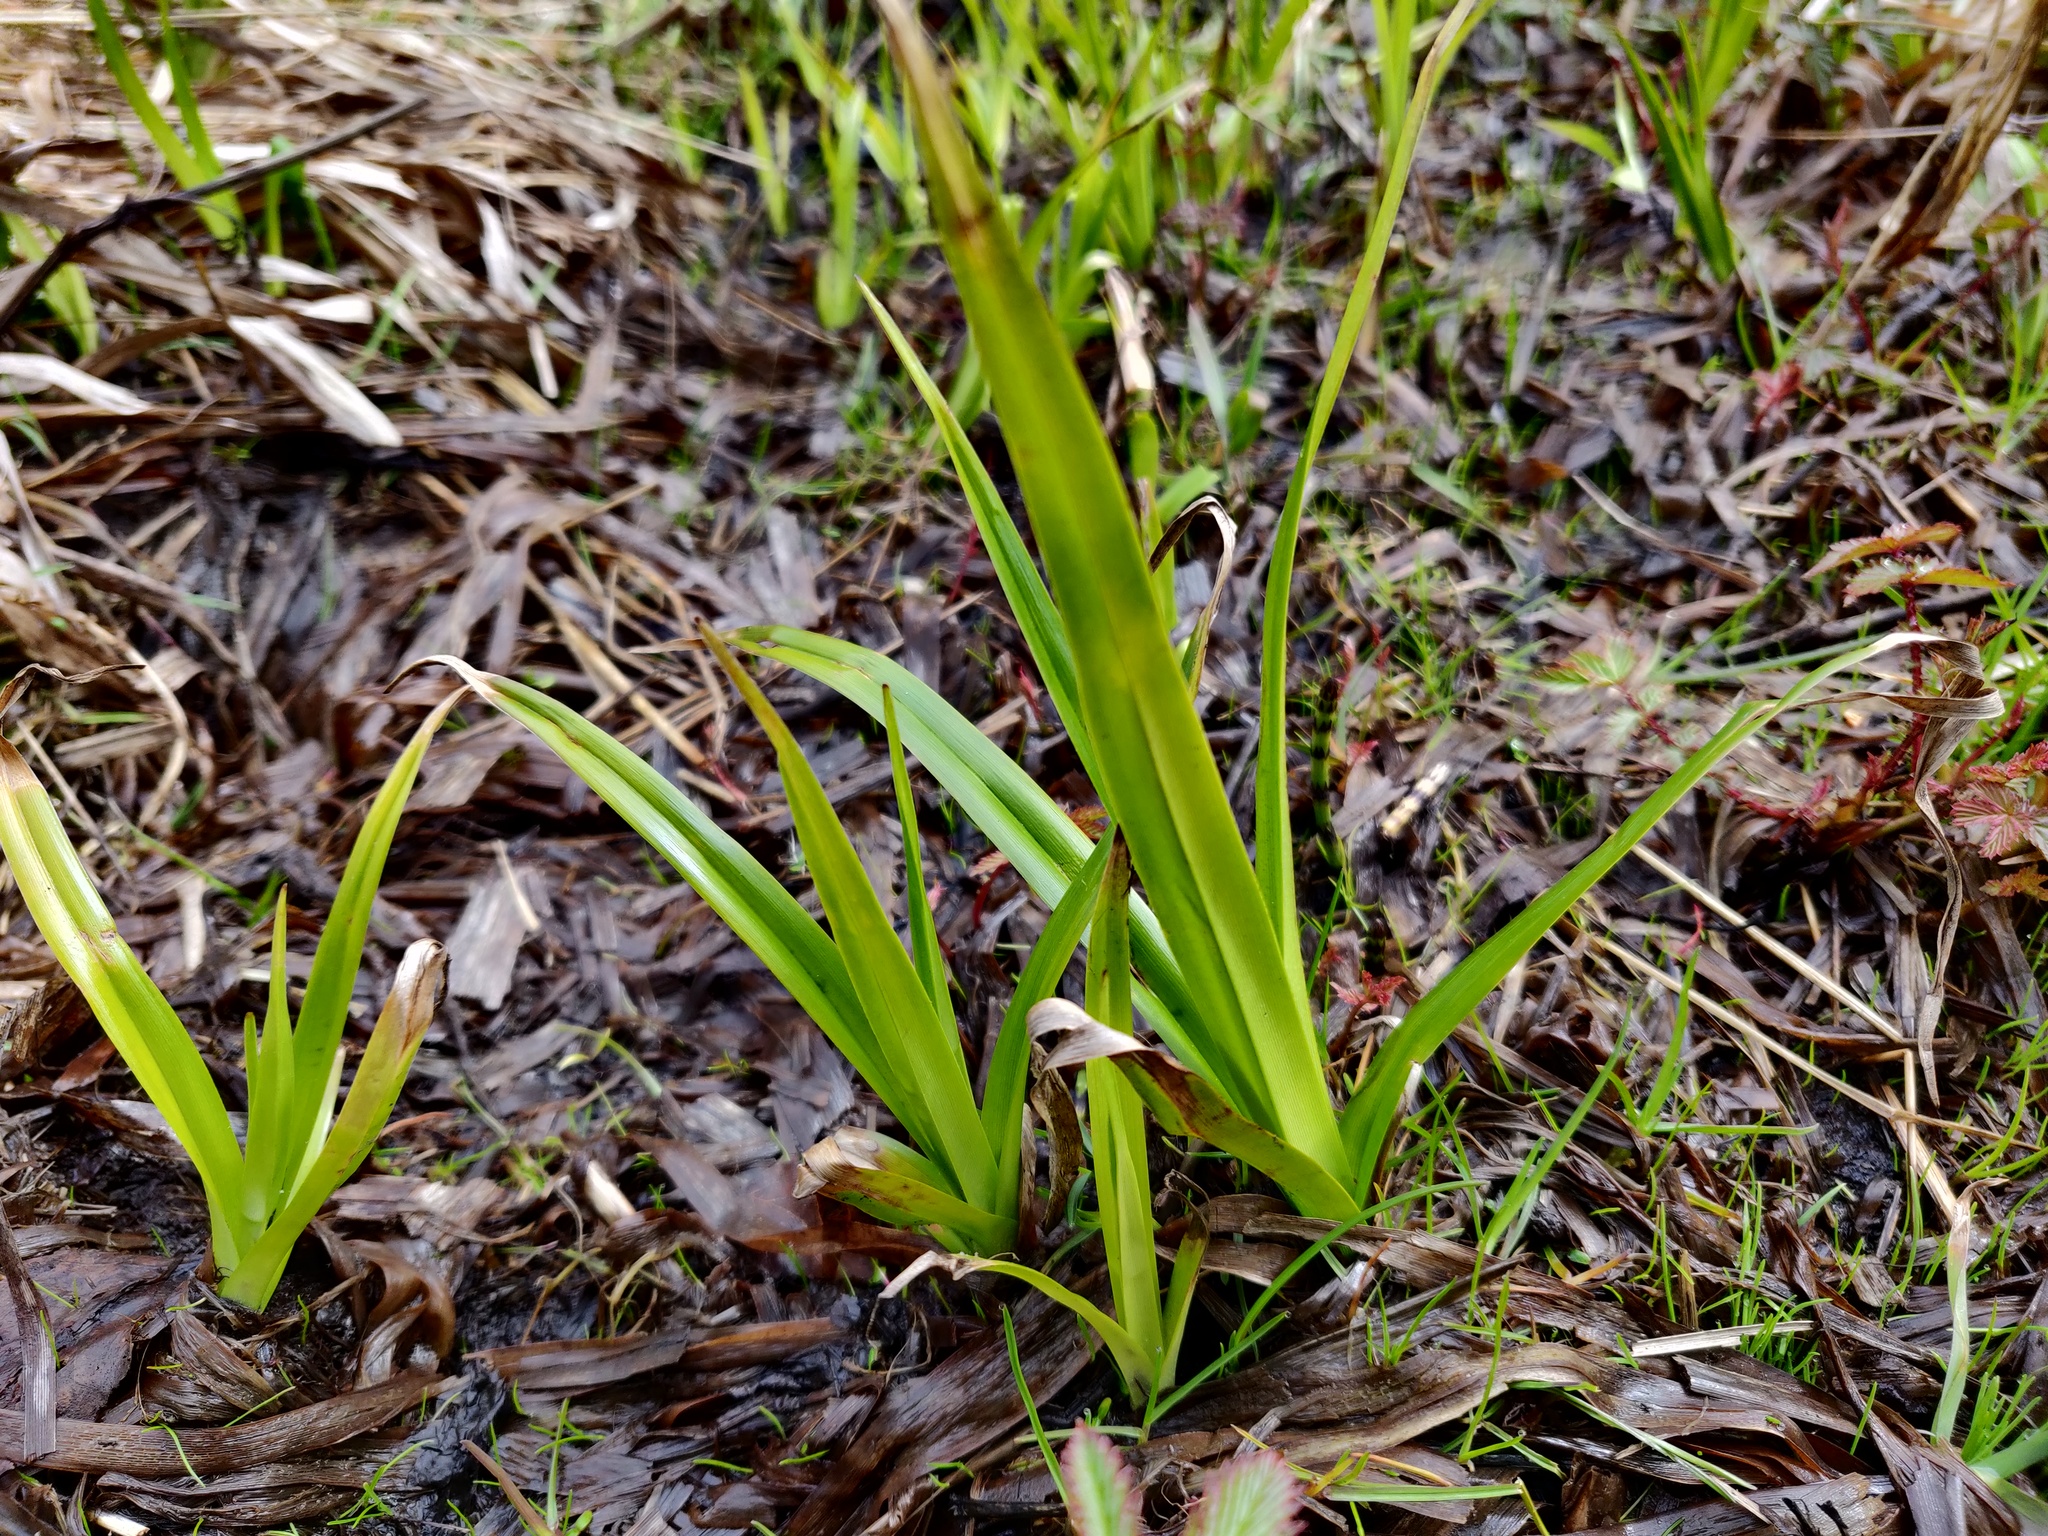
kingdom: Plantae
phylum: Tracheophyta
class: Liliopsida
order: Poales
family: Cyperaceae
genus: Scirpus
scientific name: Scirpus sylvaticus
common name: Wood club-rush
